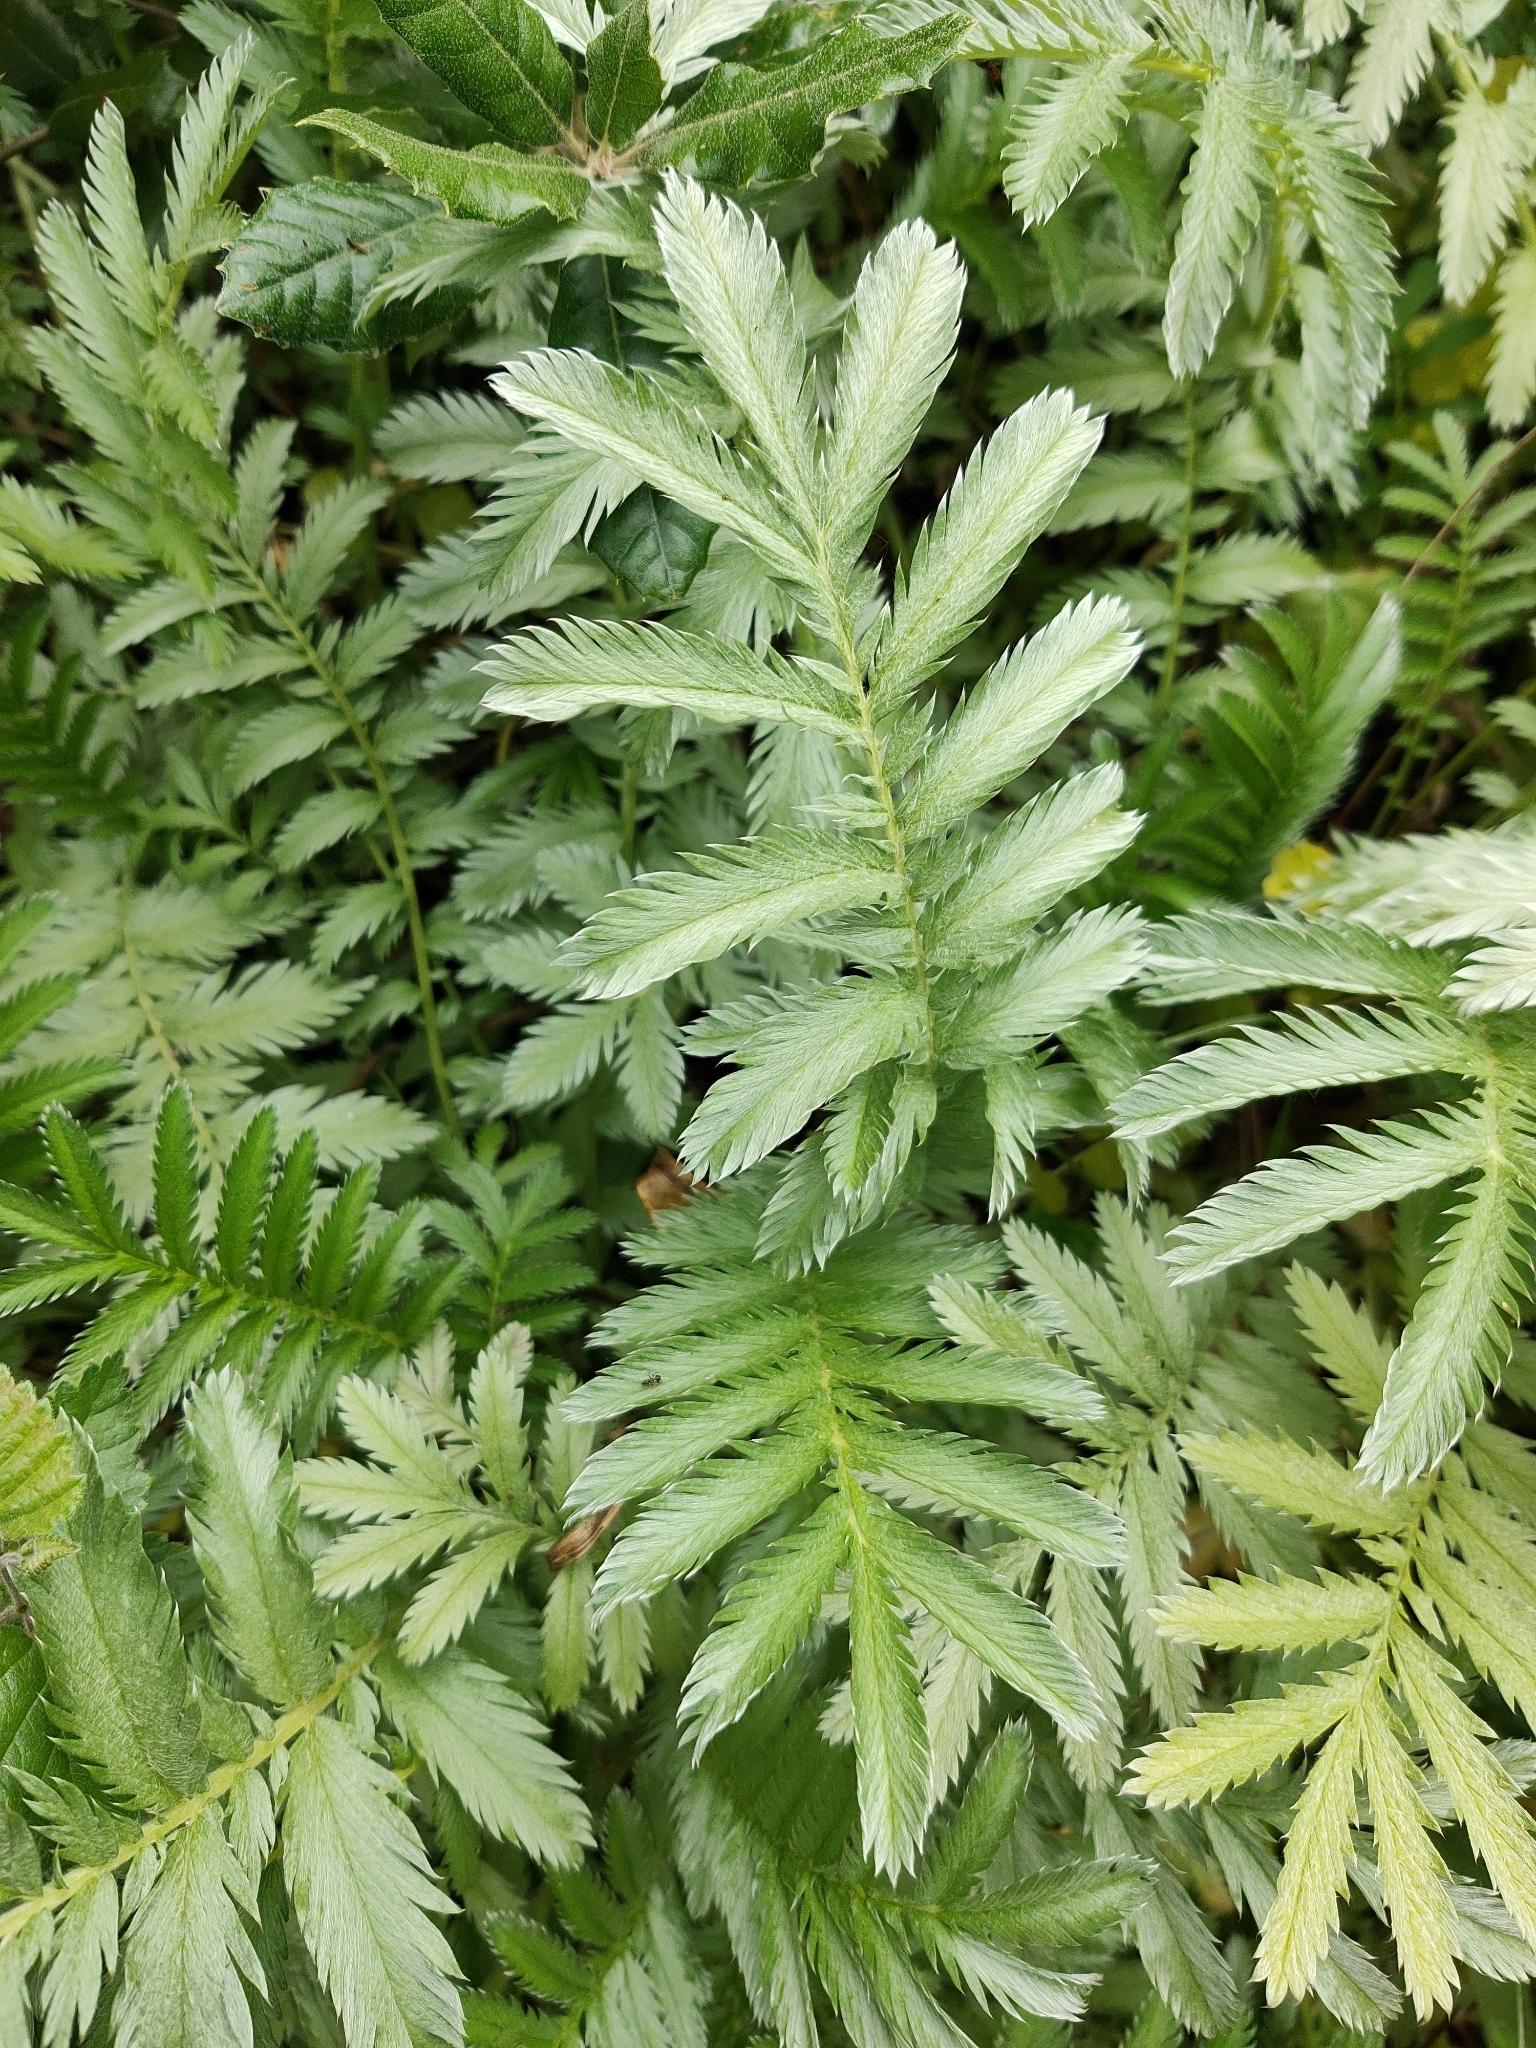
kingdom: Plantae
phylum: Tracheophyta
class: Magnoliopsida
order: Rosales
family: Rosaceae
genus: Argentina
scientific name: Argentina anserina
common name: Common silverweed
